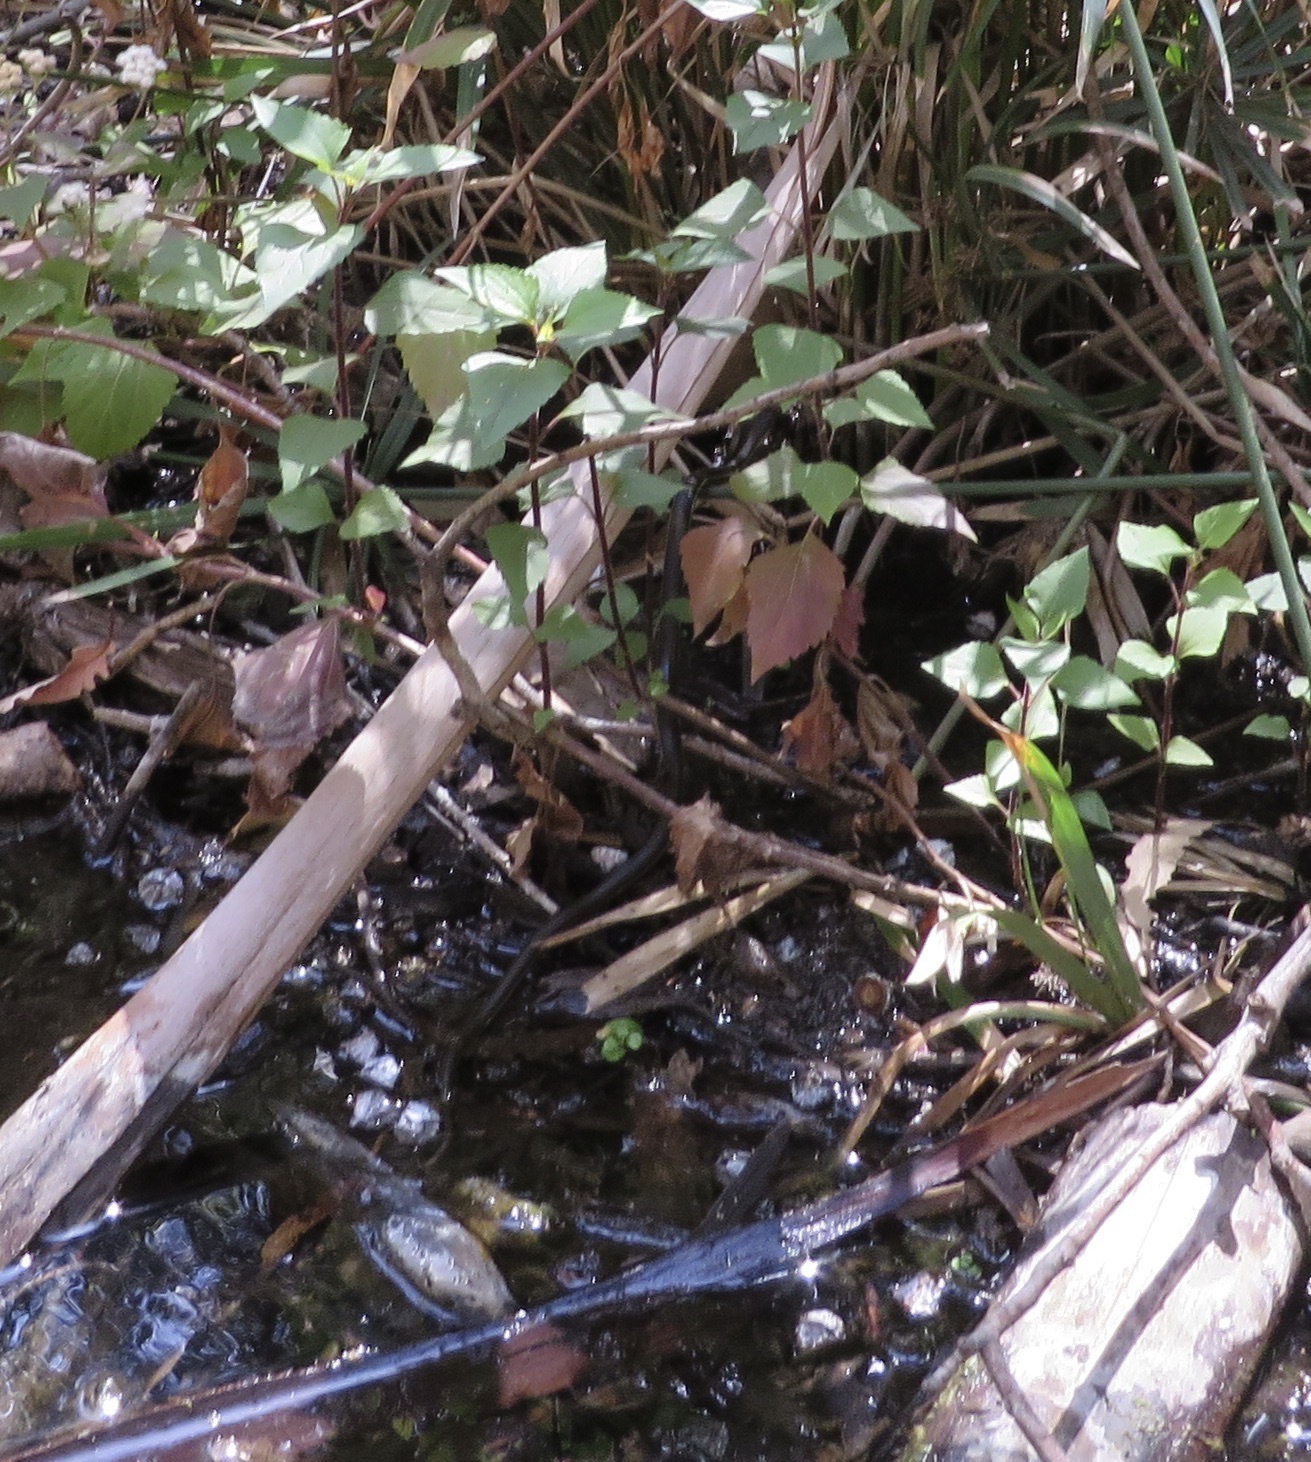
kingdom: Animalia
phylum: Chordata
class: Squamata
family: Colubridae
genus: Thamnophis
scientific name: Thamnophis hammondii
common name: Two-striped garter snake
